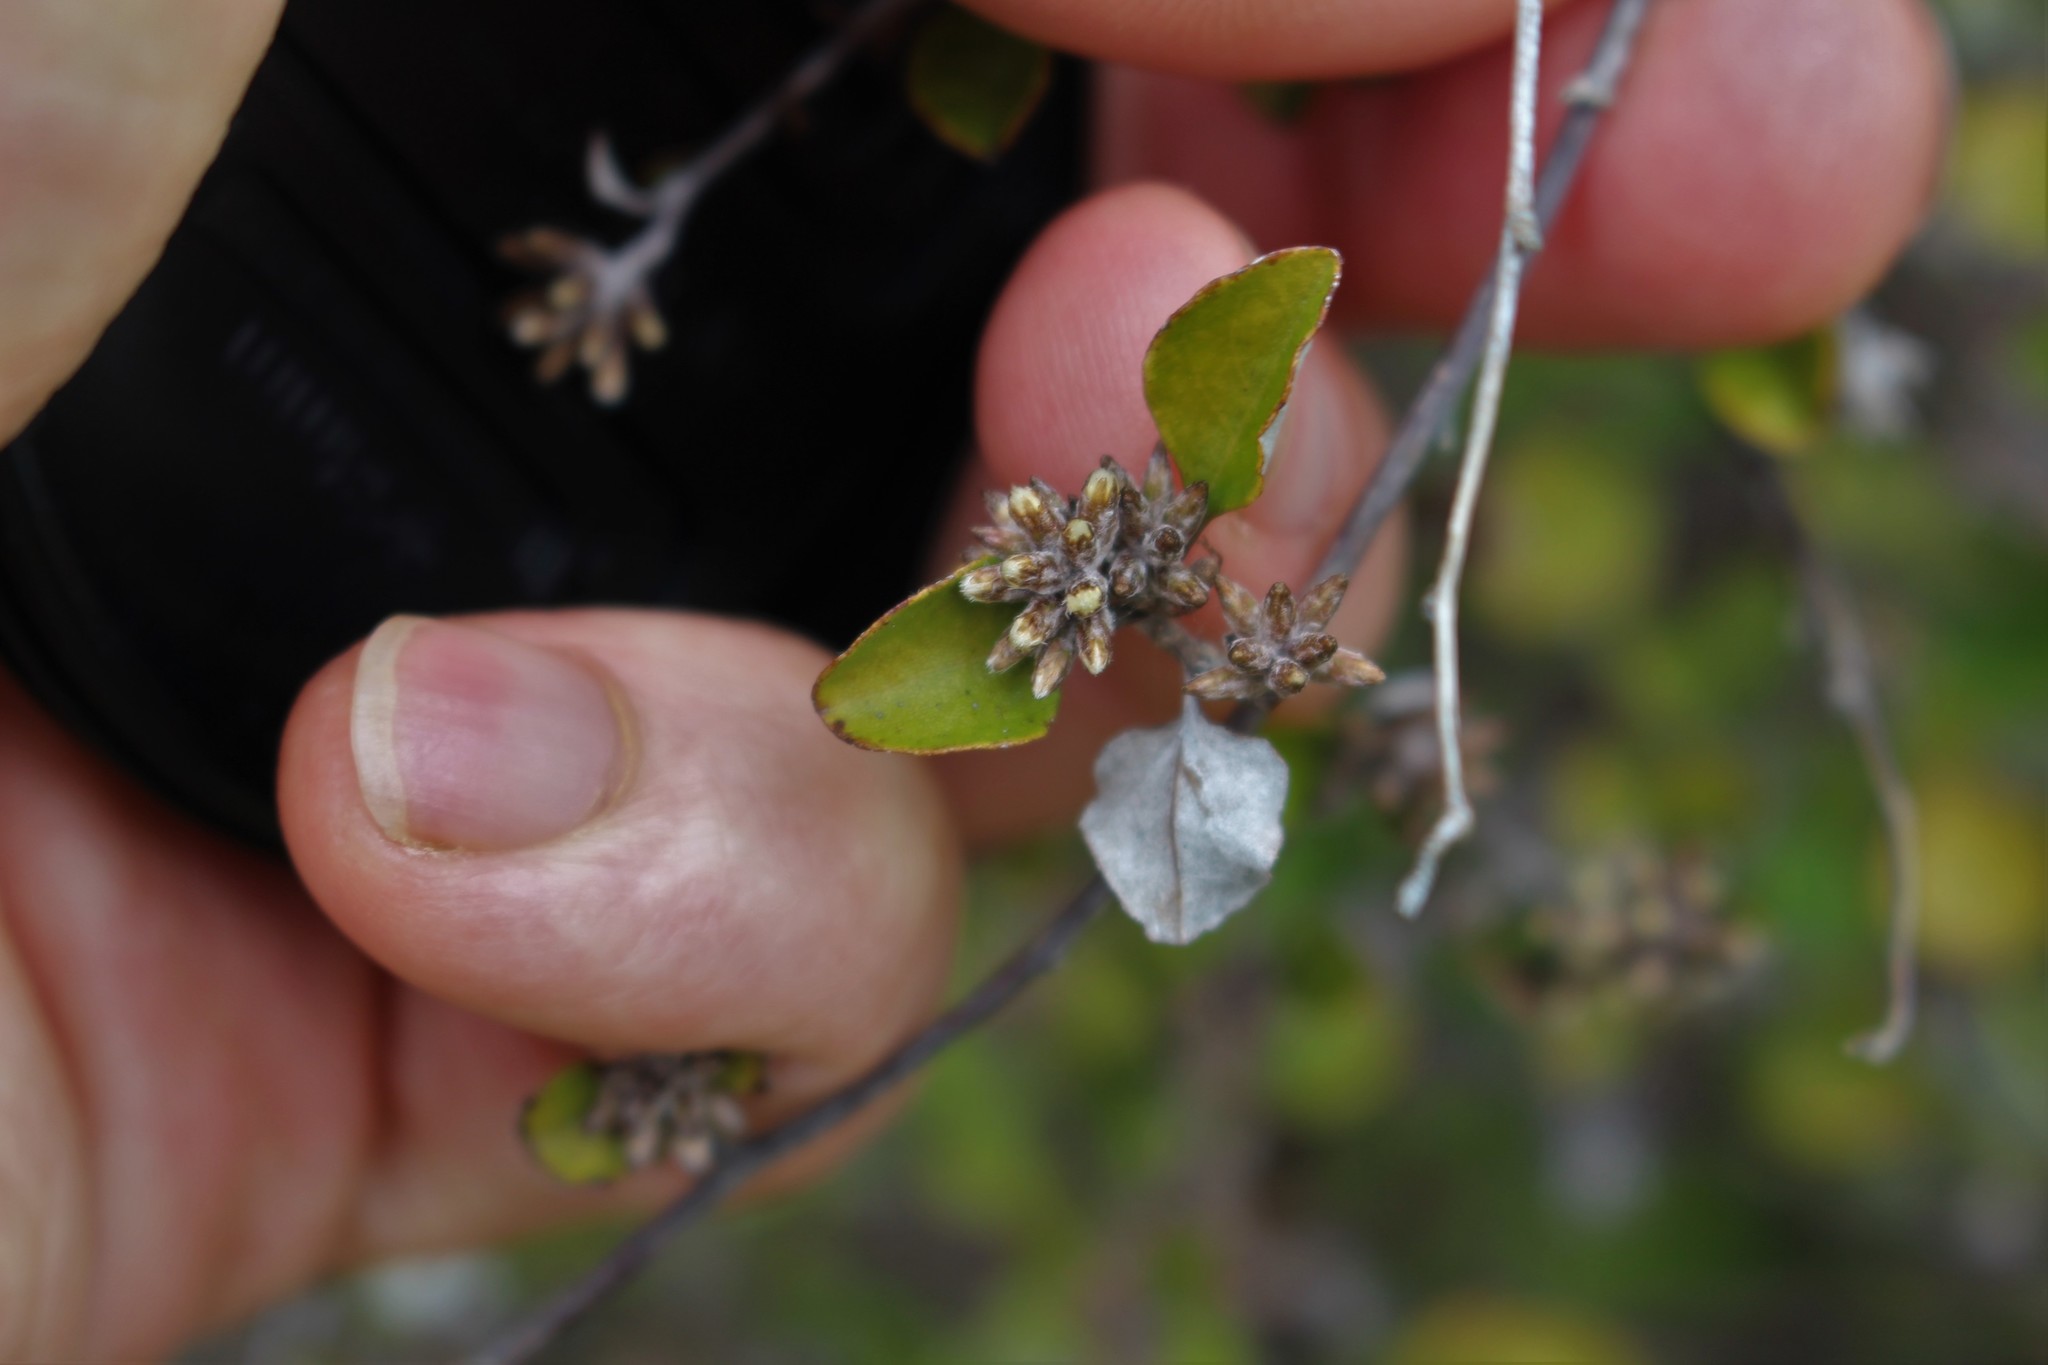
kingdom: Plantae
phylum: Tracheophyta
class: Magnoliopsida
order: Asterales
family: Asteraceae
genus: Ozothamnus
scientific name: Ozothamnus glomeratus
